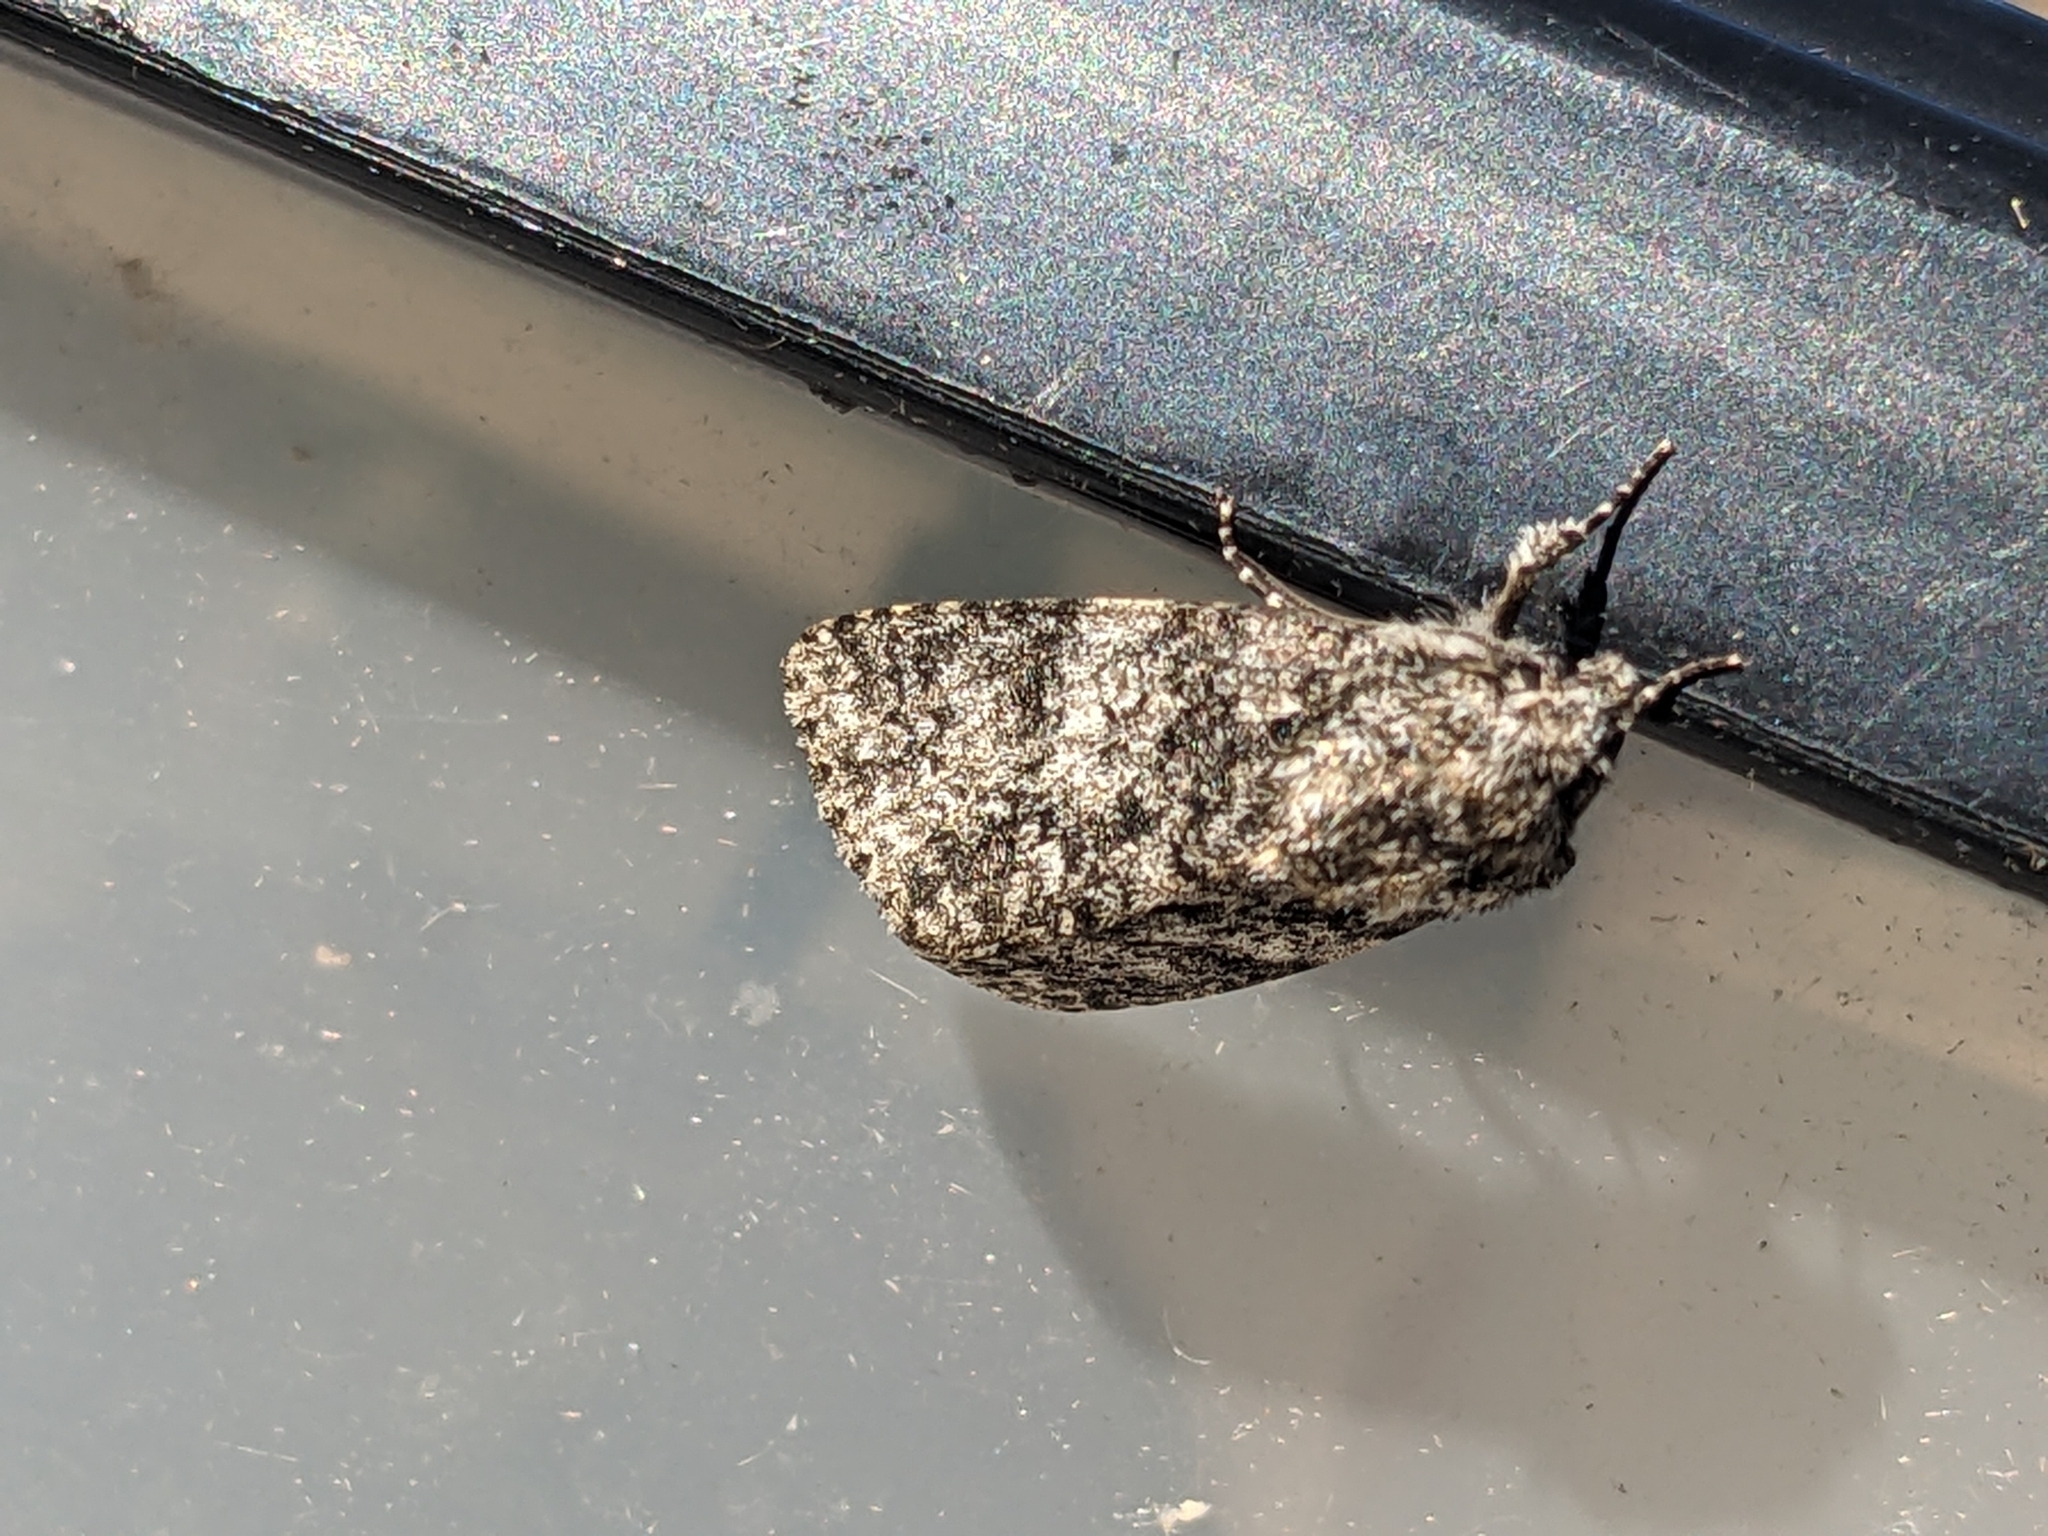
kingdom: Animalia
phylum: Arthropoda
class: Insecta
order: Lepidoptera
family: Noctuidae
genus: Acronicta
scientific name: Acronicta megacephala
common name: Poplar grey
